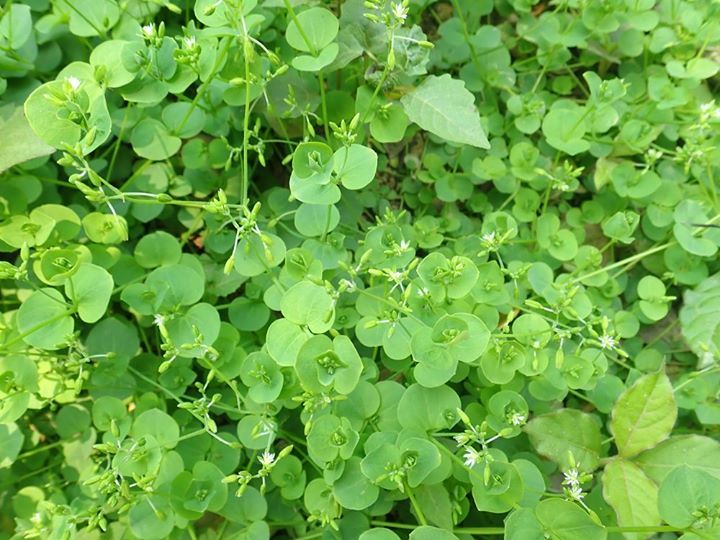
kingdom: Plantae
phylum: Tracheophyta
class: Magnoliopsida
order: Caryophyllales
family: Caryophyllaceae
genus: Drymaria
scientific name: Drymaria cordata
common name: Whitesnow
